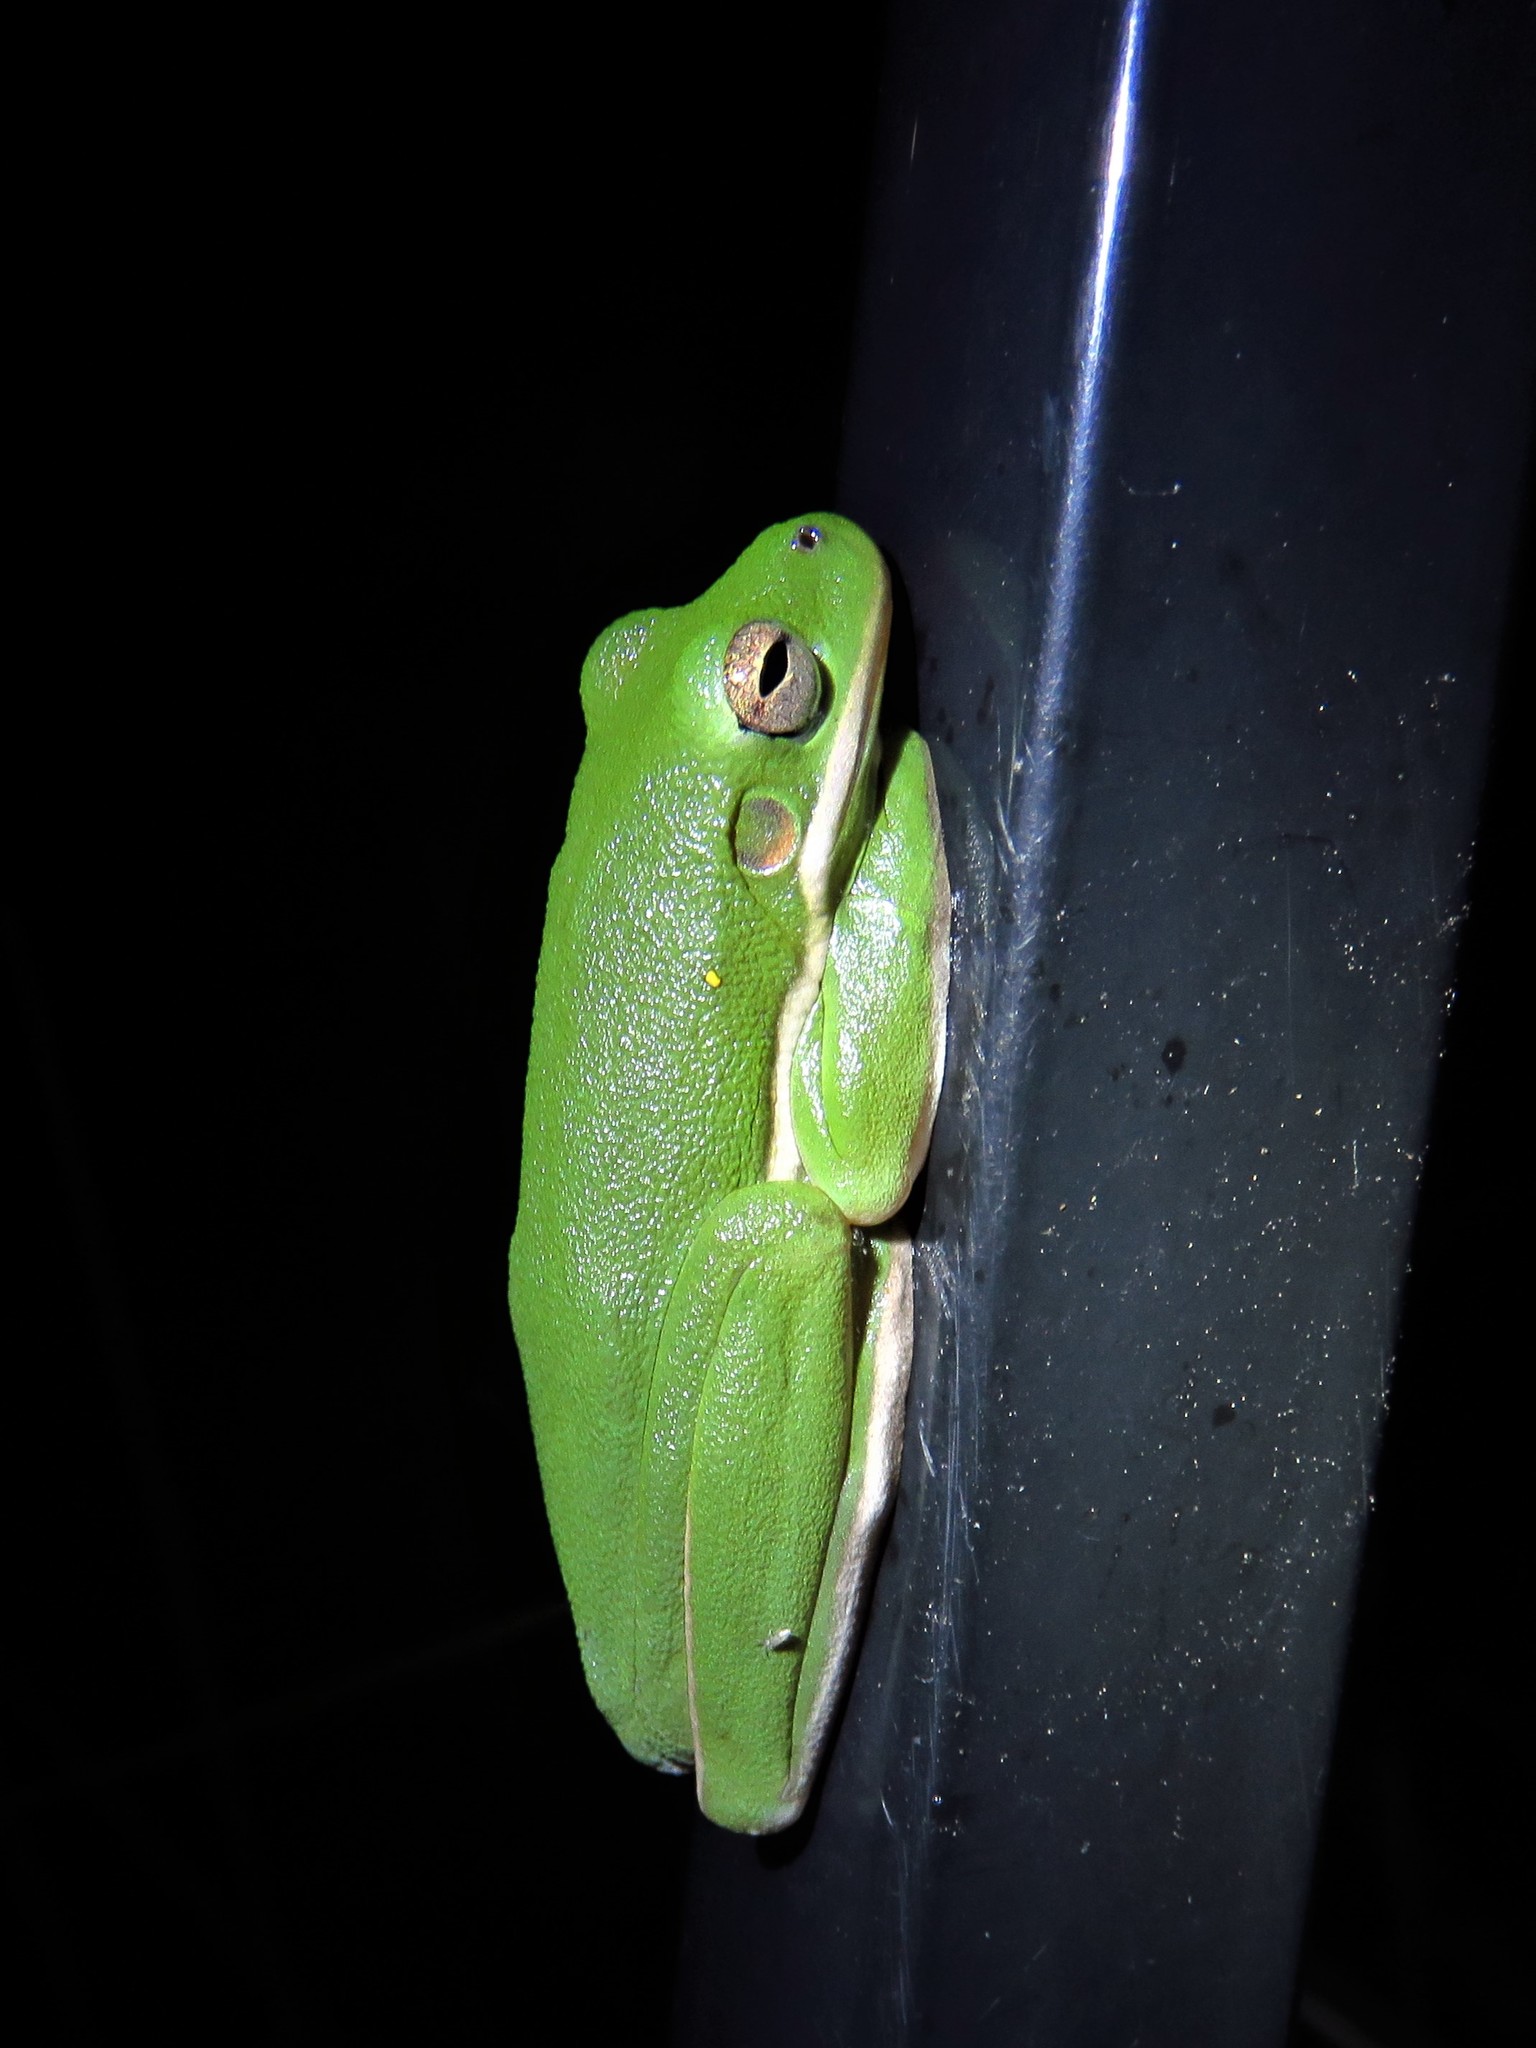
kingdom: Animalia
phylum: Chordata
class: Amphibia
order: Anura
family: Hylidae
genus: Dryophytes
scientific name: Dryophytes cinereus
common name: Green treefrog
